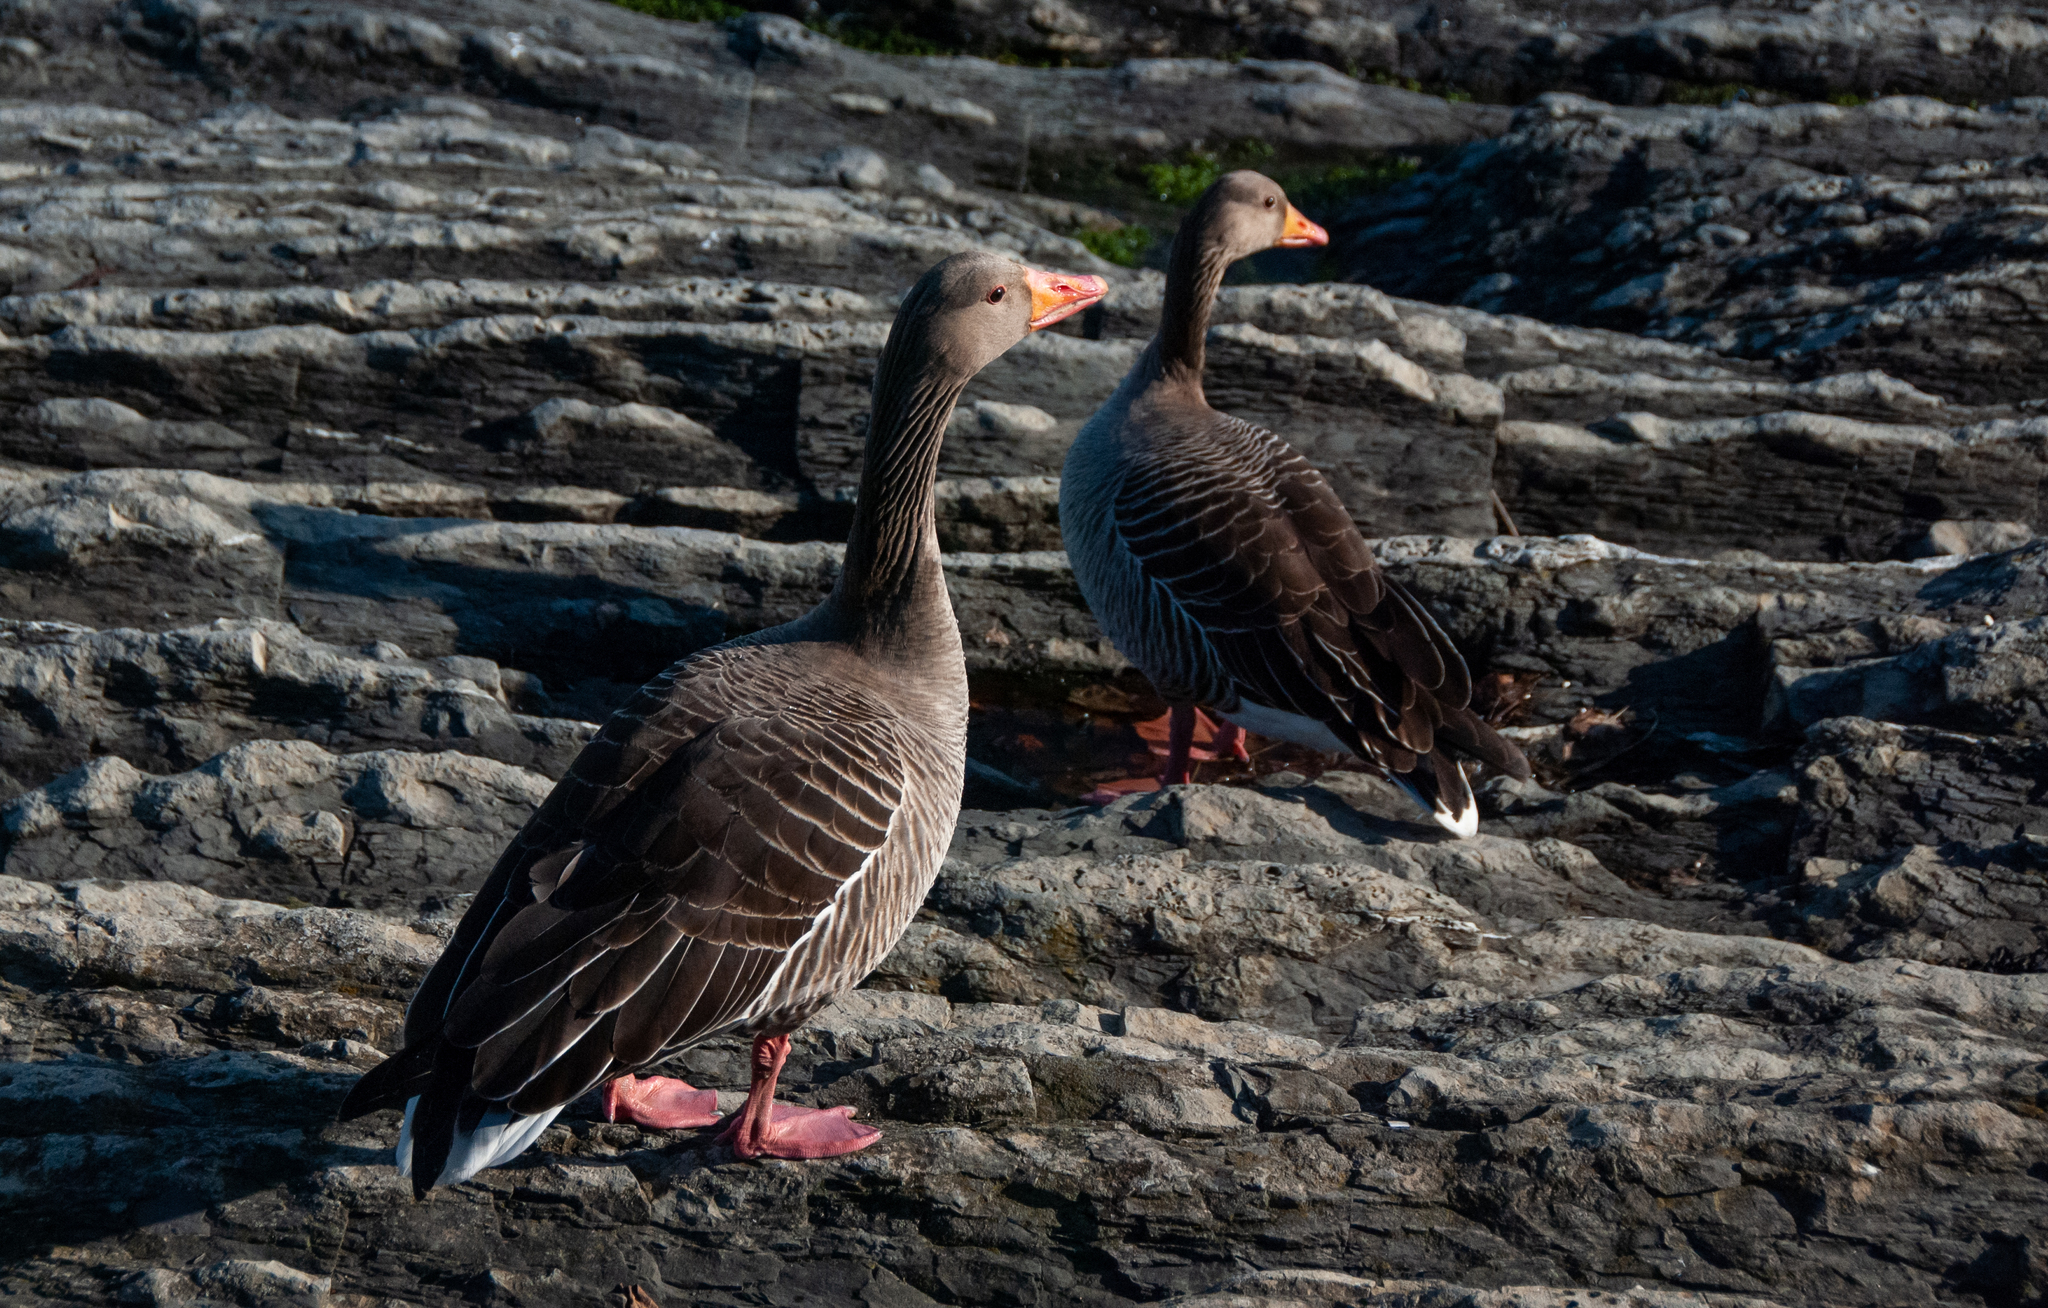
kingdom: Animalia
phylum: Chordata
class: Aves
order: Anseriformes
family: Anatidae
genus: Anser
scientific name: Anser anser
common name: Greylag goose
